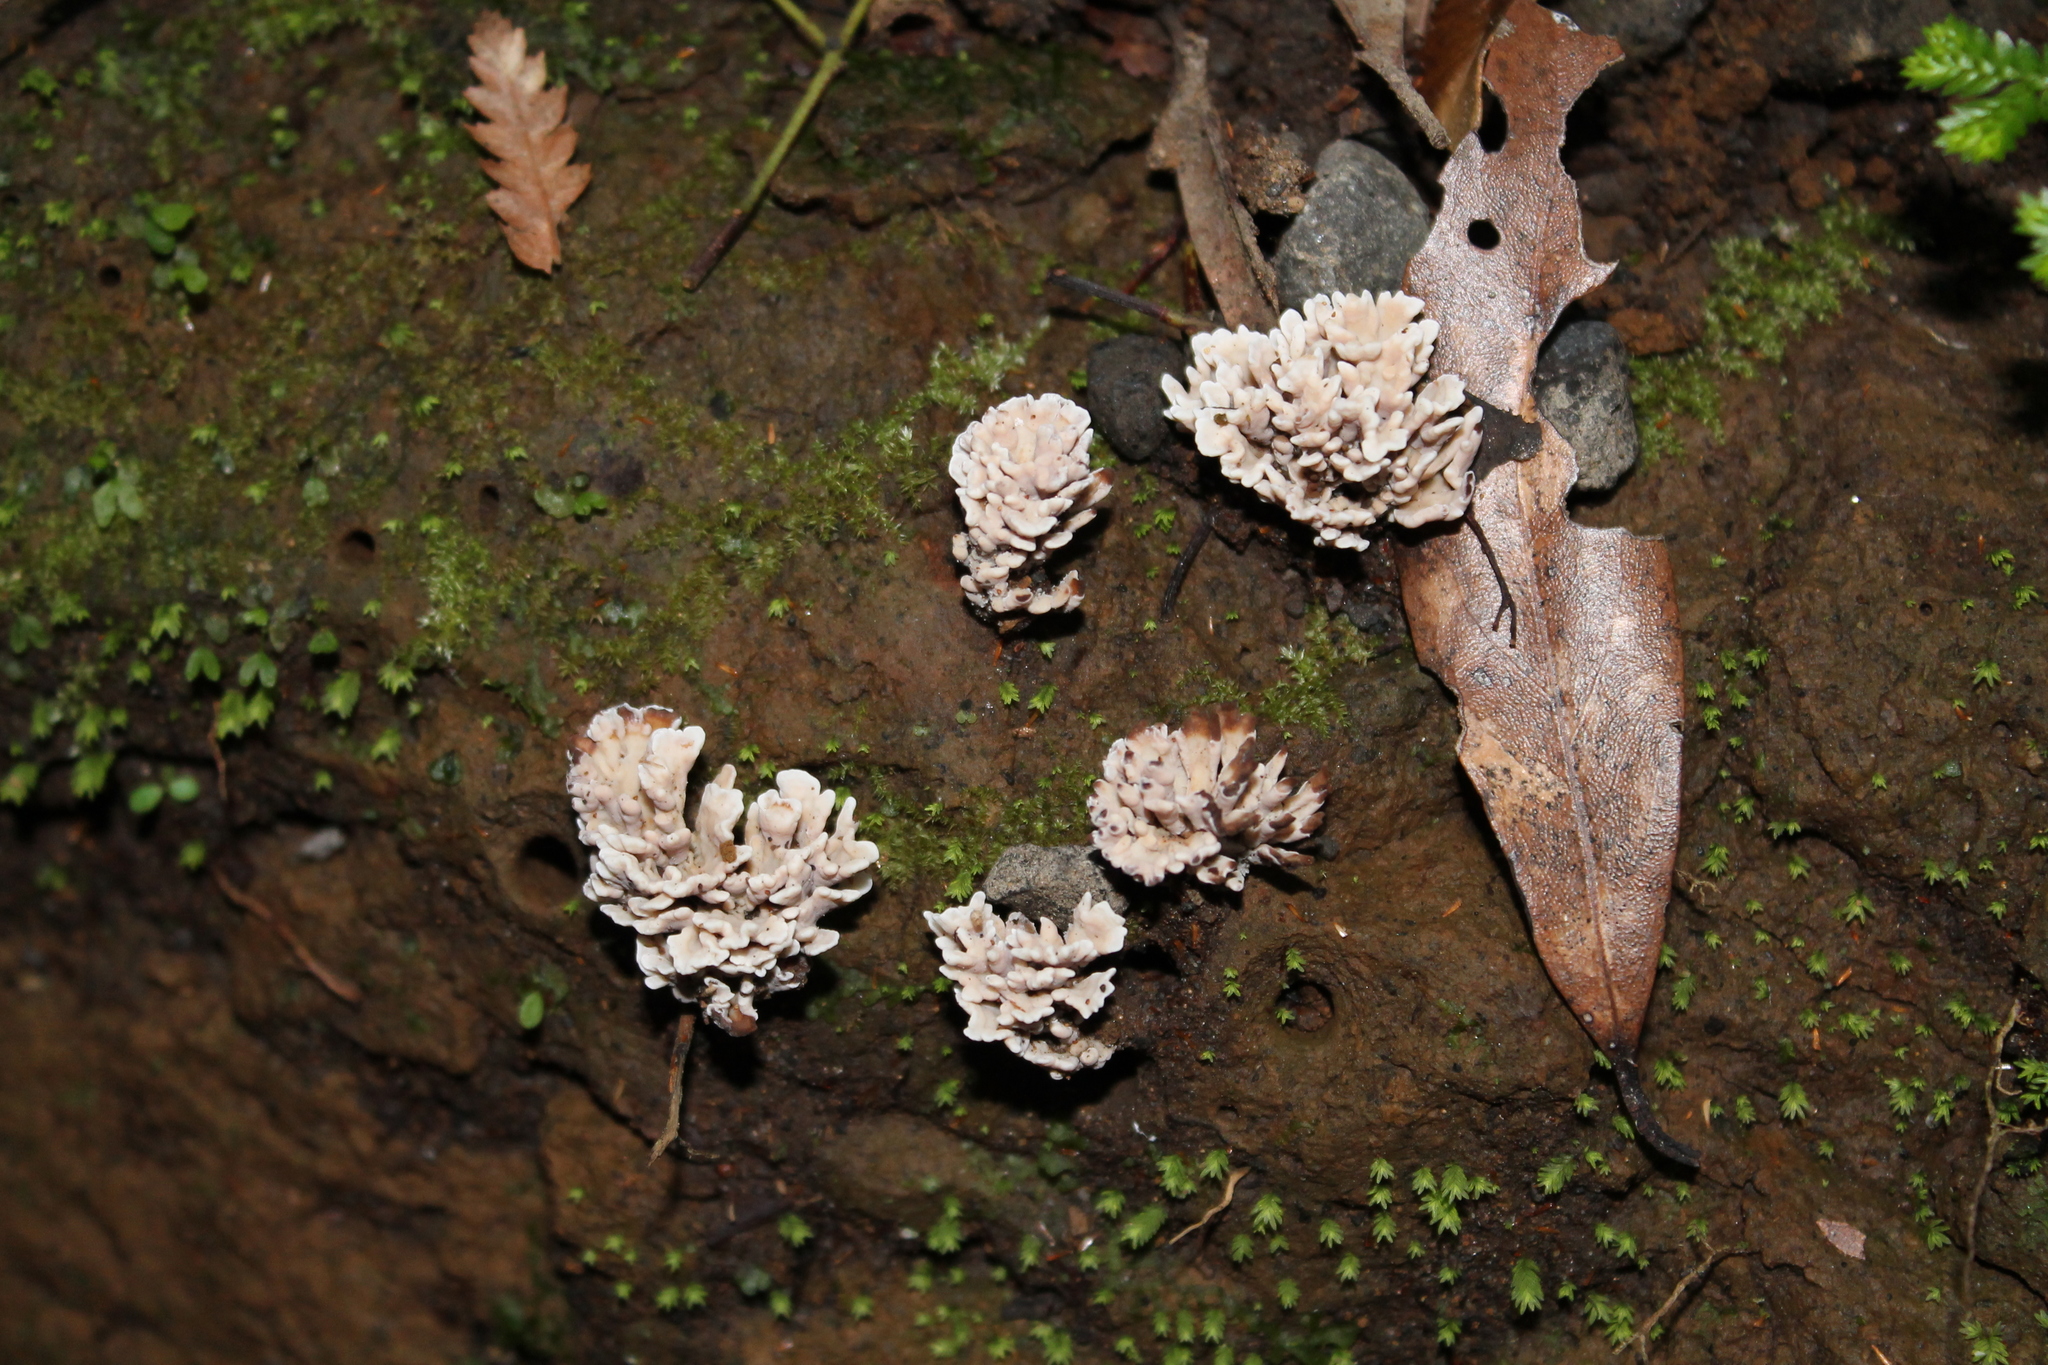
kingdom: Fungi
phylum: Basidiomycota
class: Agaricomycetes
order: Stereopsidales
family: Stereopsidaceae
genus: Stereopsis
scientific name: Stereopsis hiscens
